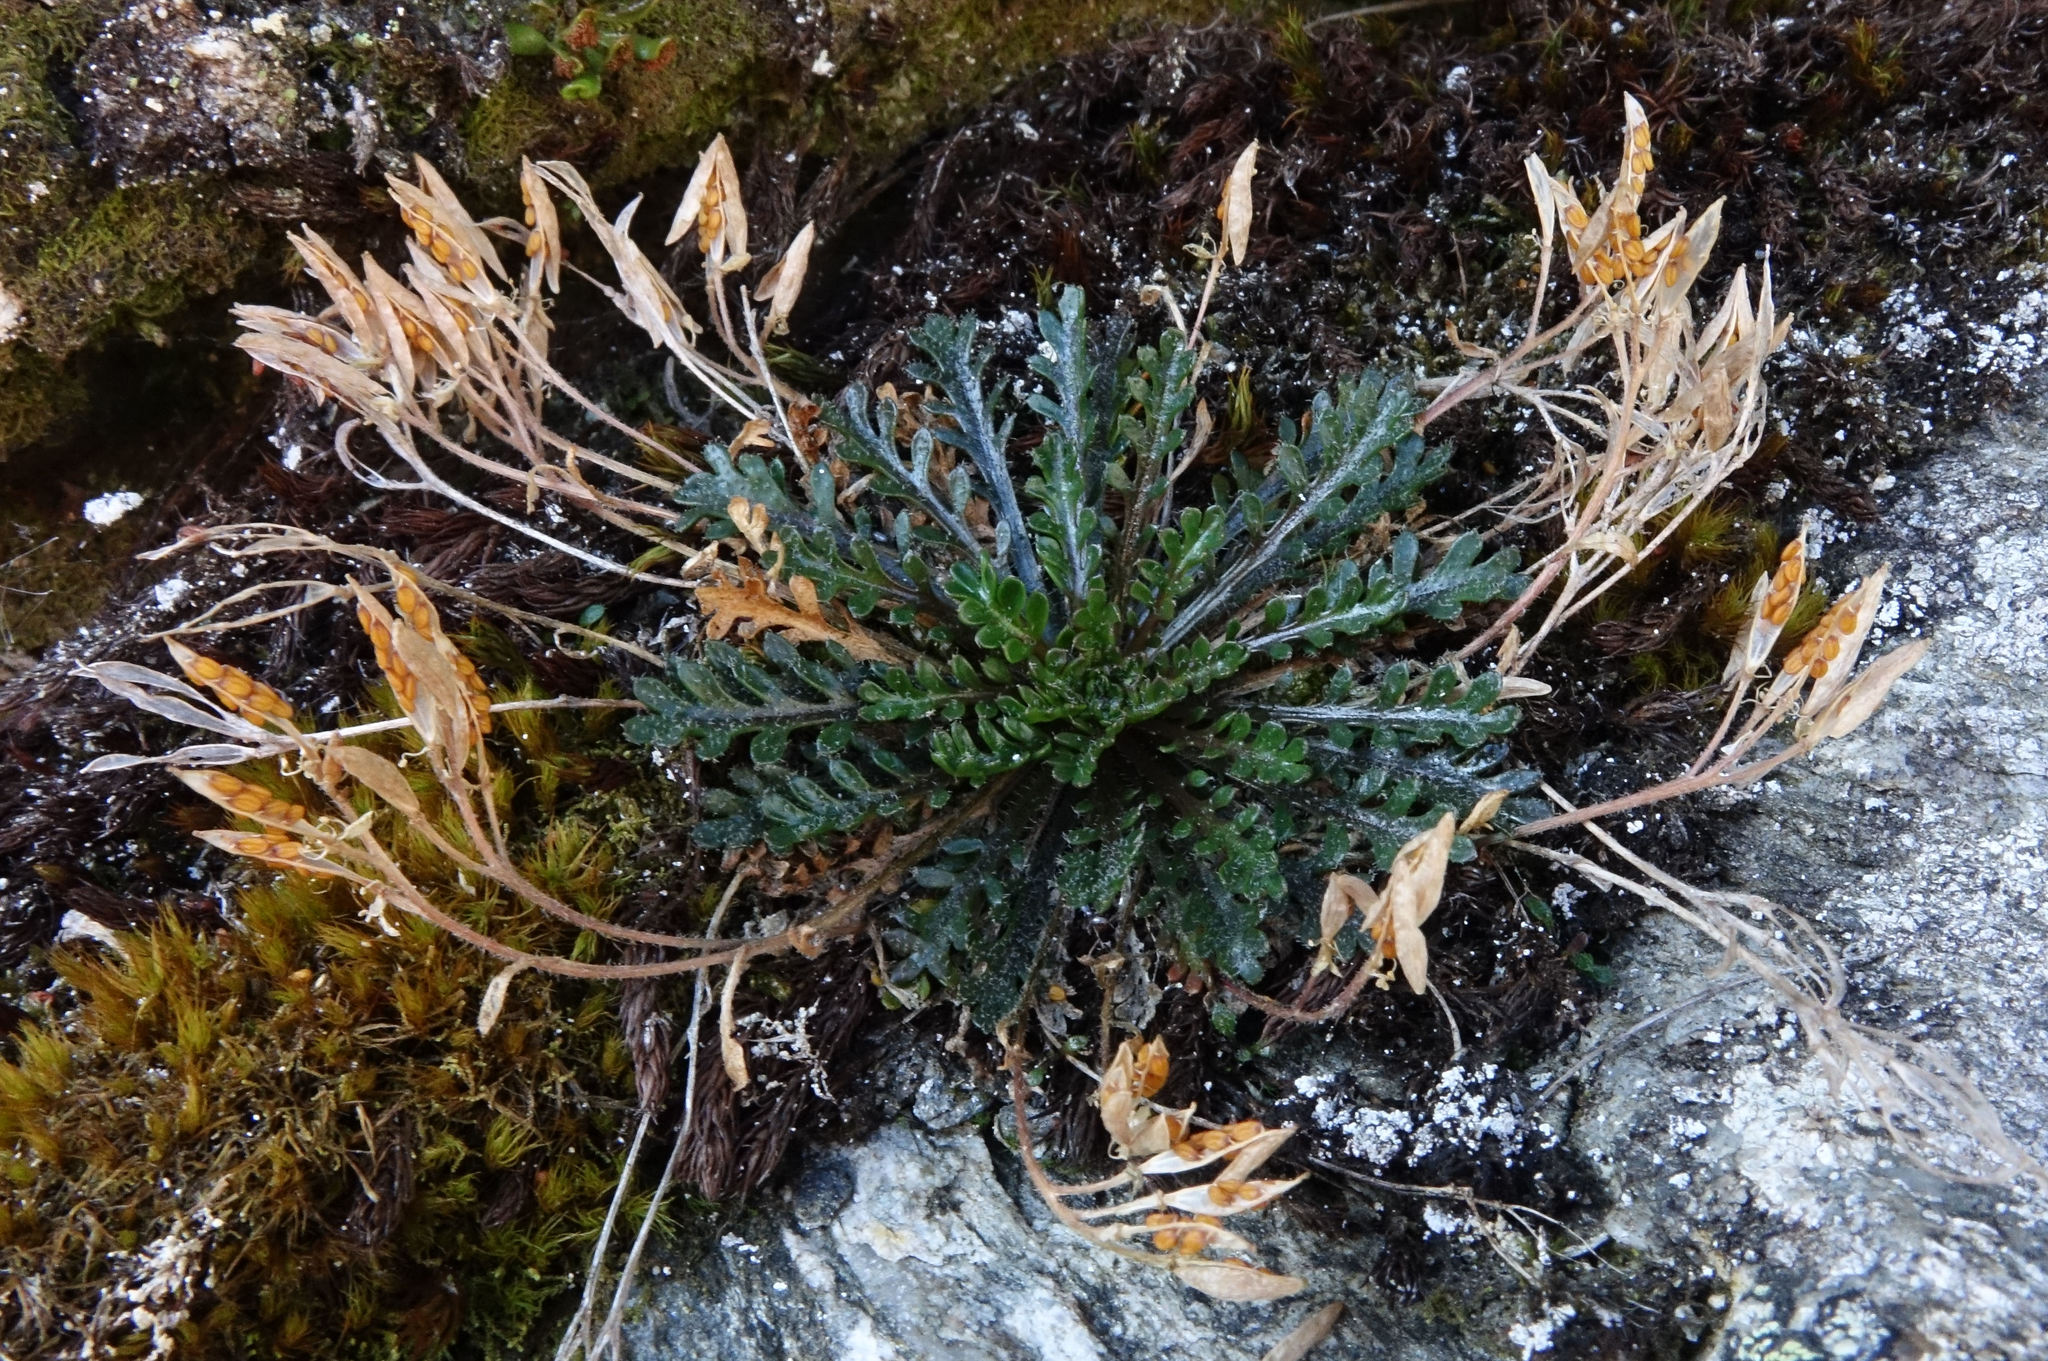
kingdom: Plantae
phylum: Tracheophyta
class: Magnoliopsida
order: Brassicales
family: Brassicaceae
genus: Pachycladon
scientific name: Pachycladon novae-zelandiae
